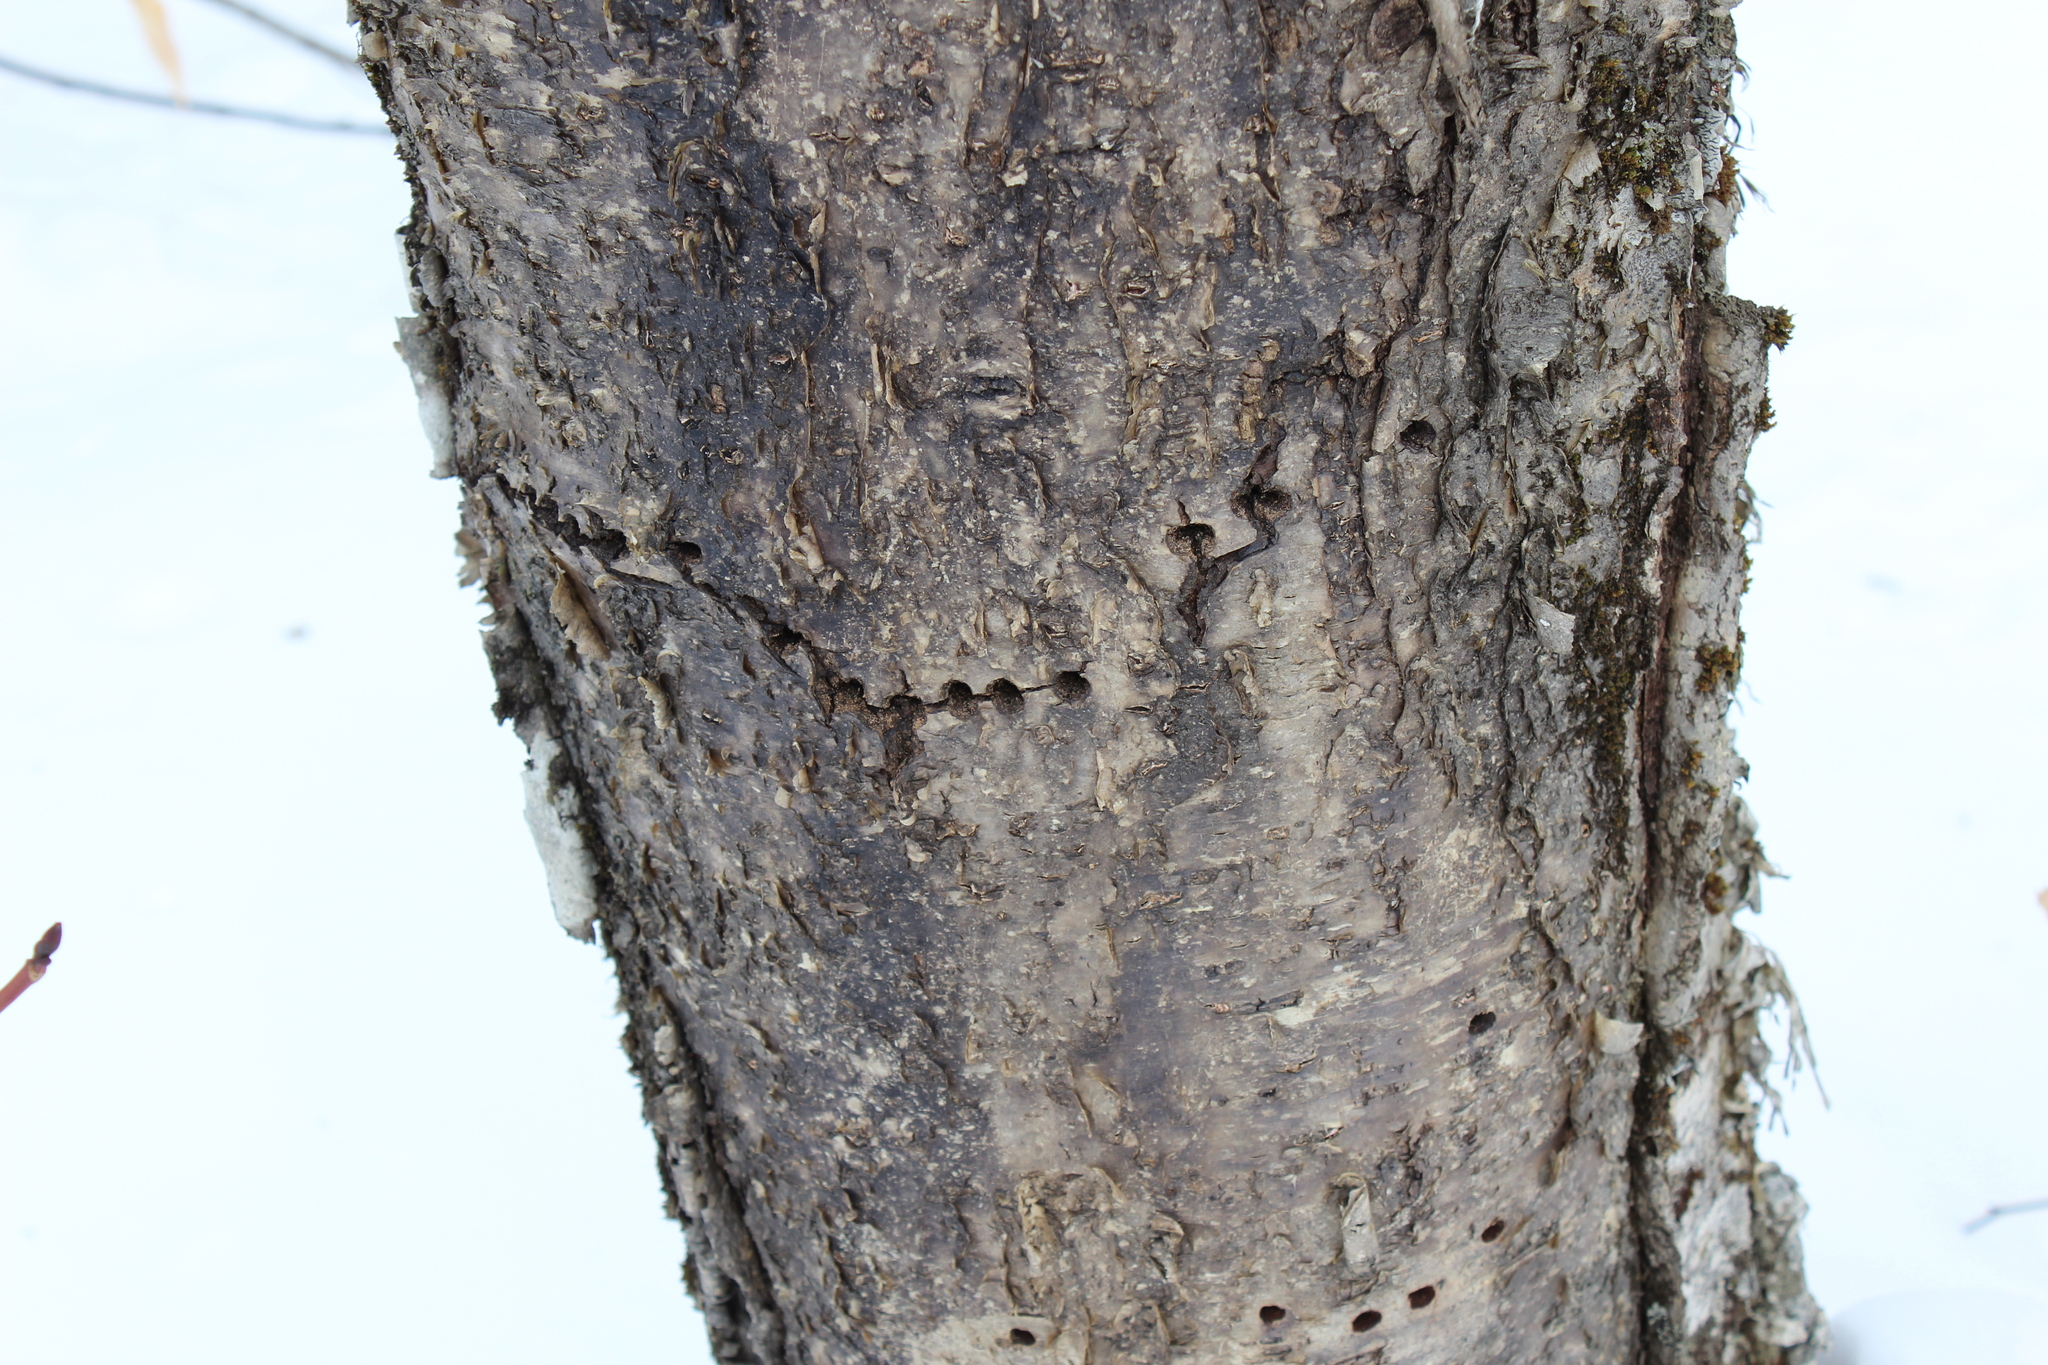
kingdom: Animalia
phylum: Chordata
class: Aves
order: Piciformes
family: Picidae
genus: Sphyrapicus
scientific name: Sphyrapicus varius
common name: Yellow-bellied sapsucker
